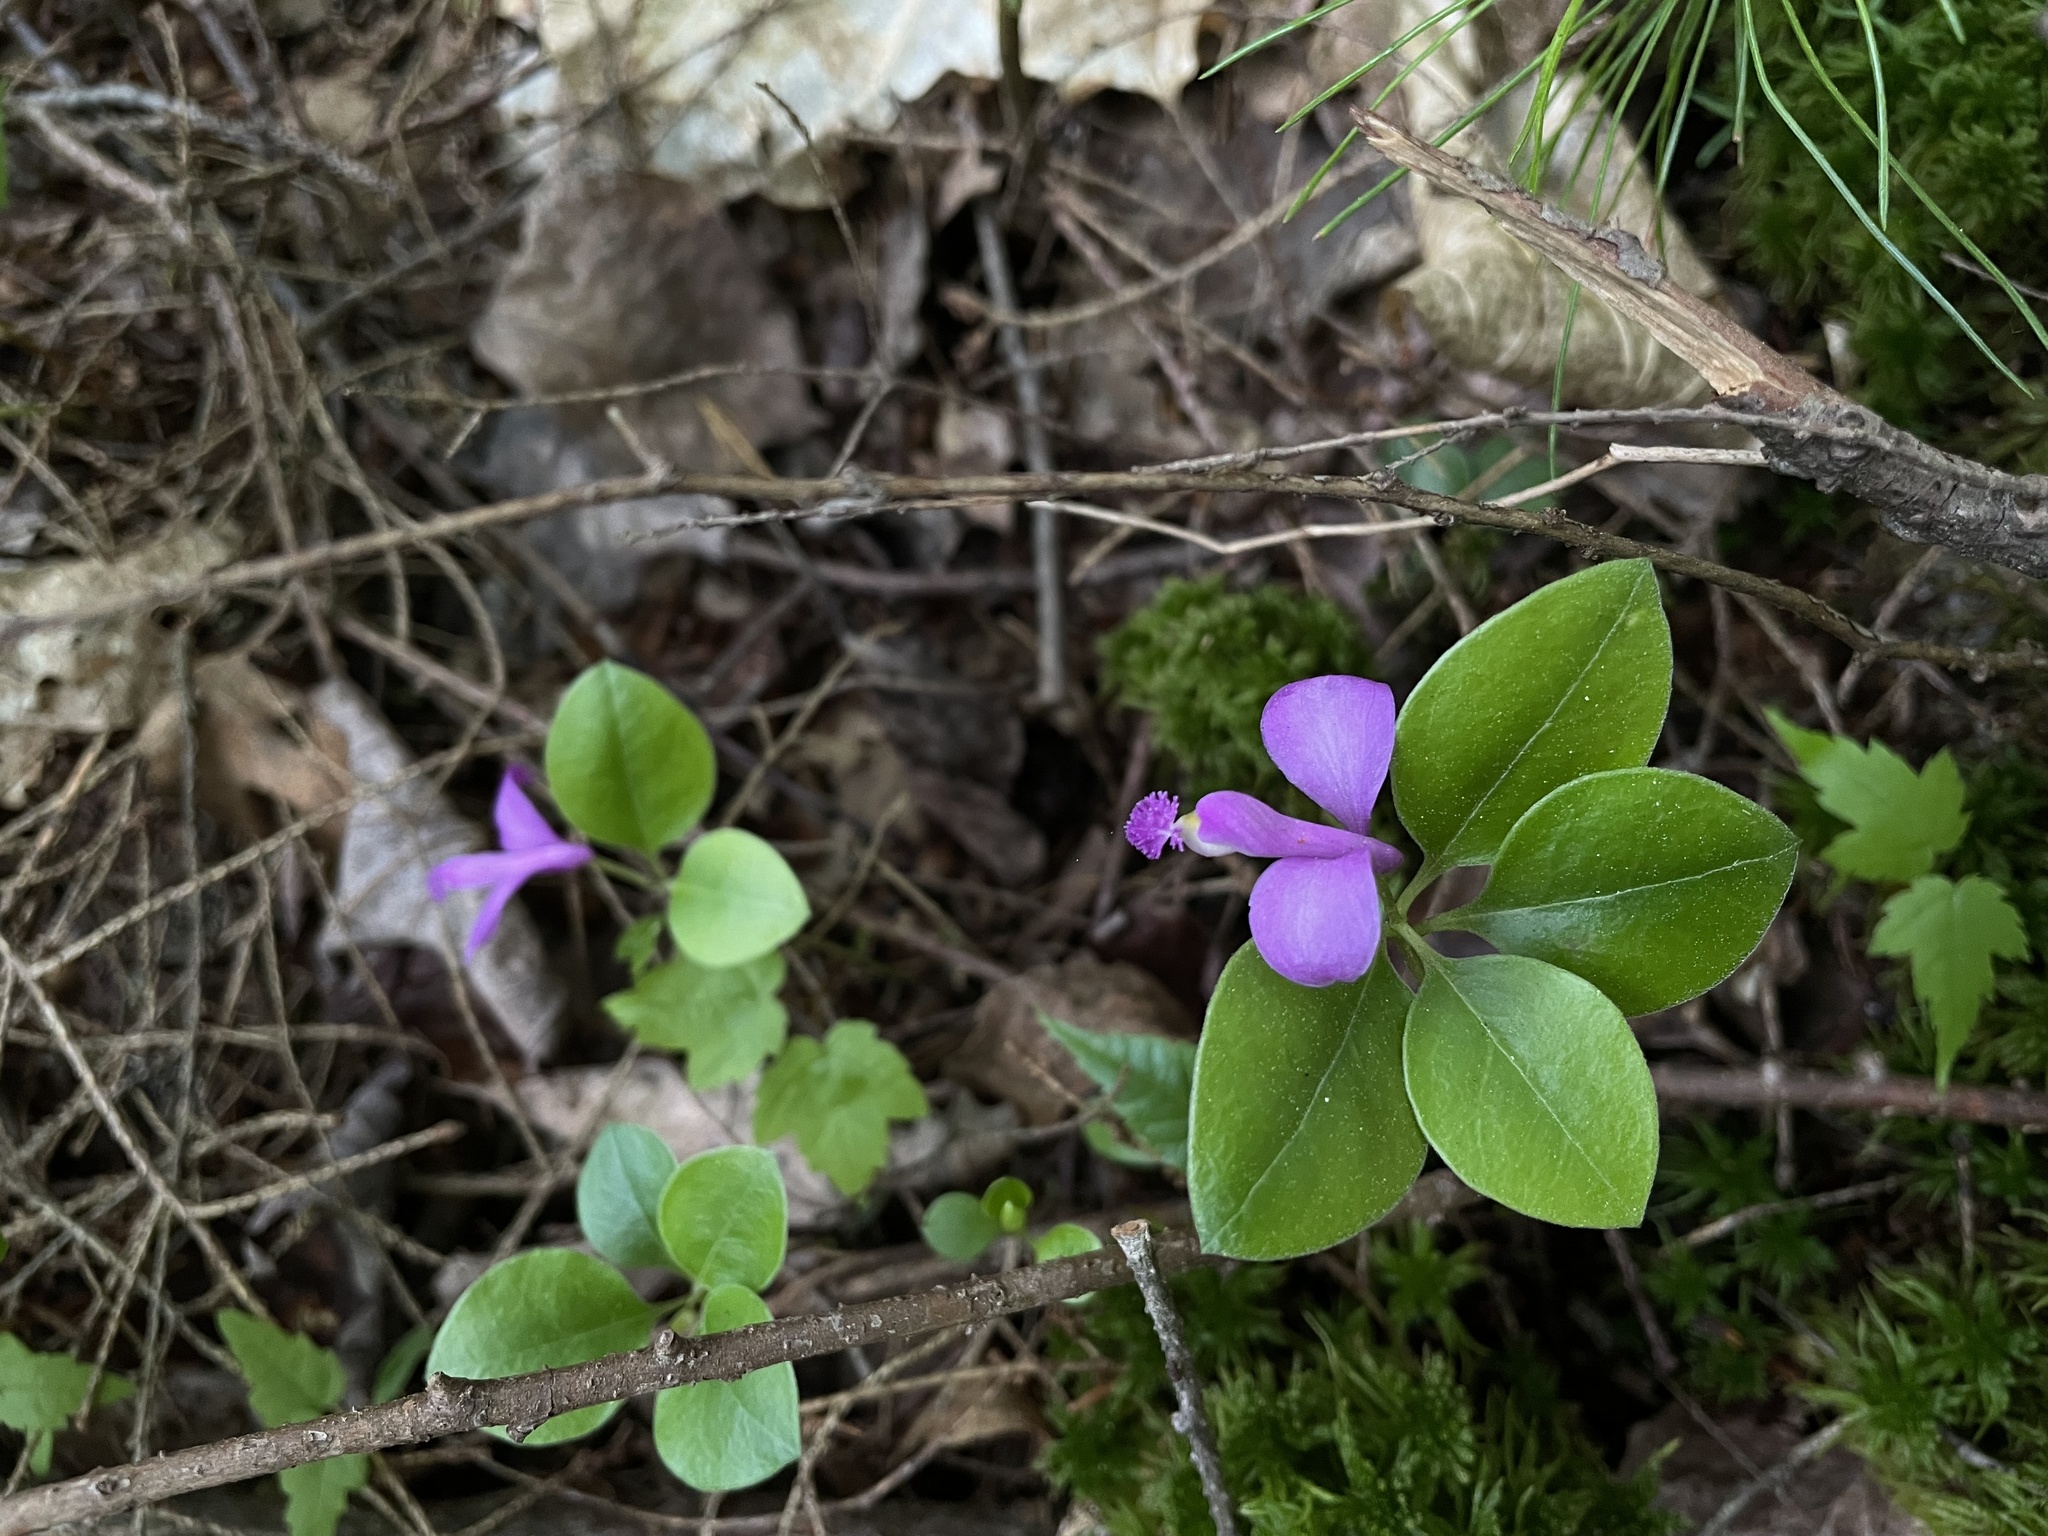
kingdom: Plantae
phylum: Tracheophyta
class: Magnoliopsida
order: Fabales
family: Polygalaceae
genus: Polygaloides
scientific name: Polygaloides paucifolia
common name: Bird-on-the-wing
